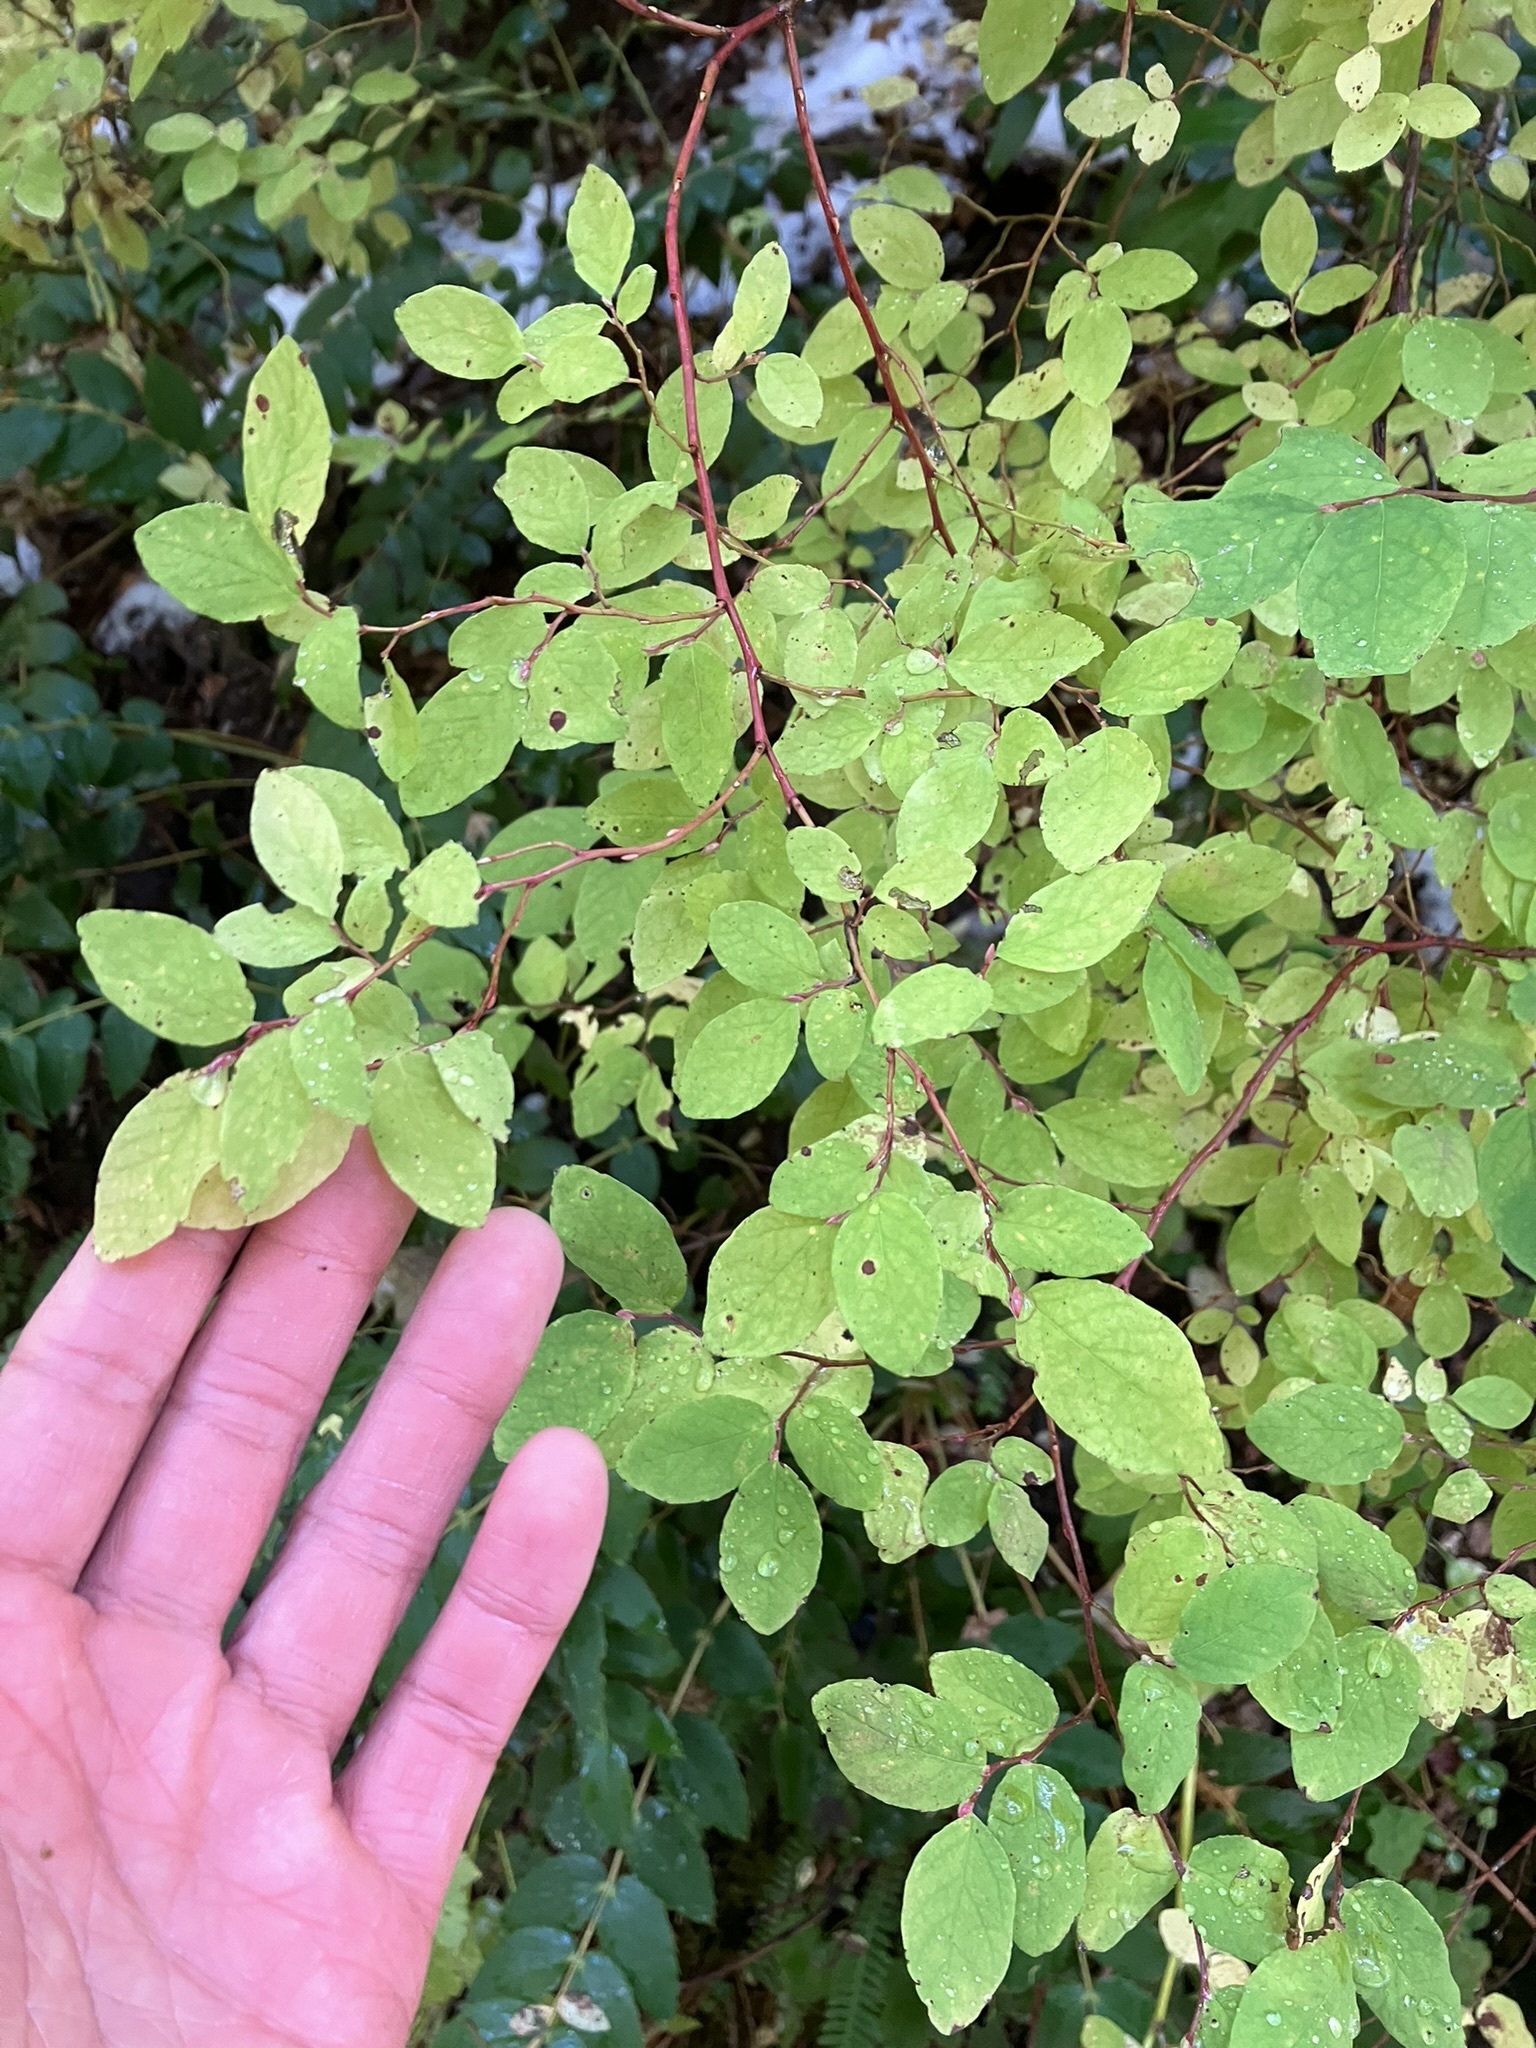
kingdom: Plantae
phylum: Tracheophyta
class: Magnoliopsida
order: Ericales
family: Ericaceae
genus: Vaccinium
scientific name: Vaccinium ovalifolium
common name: Early blueberry
